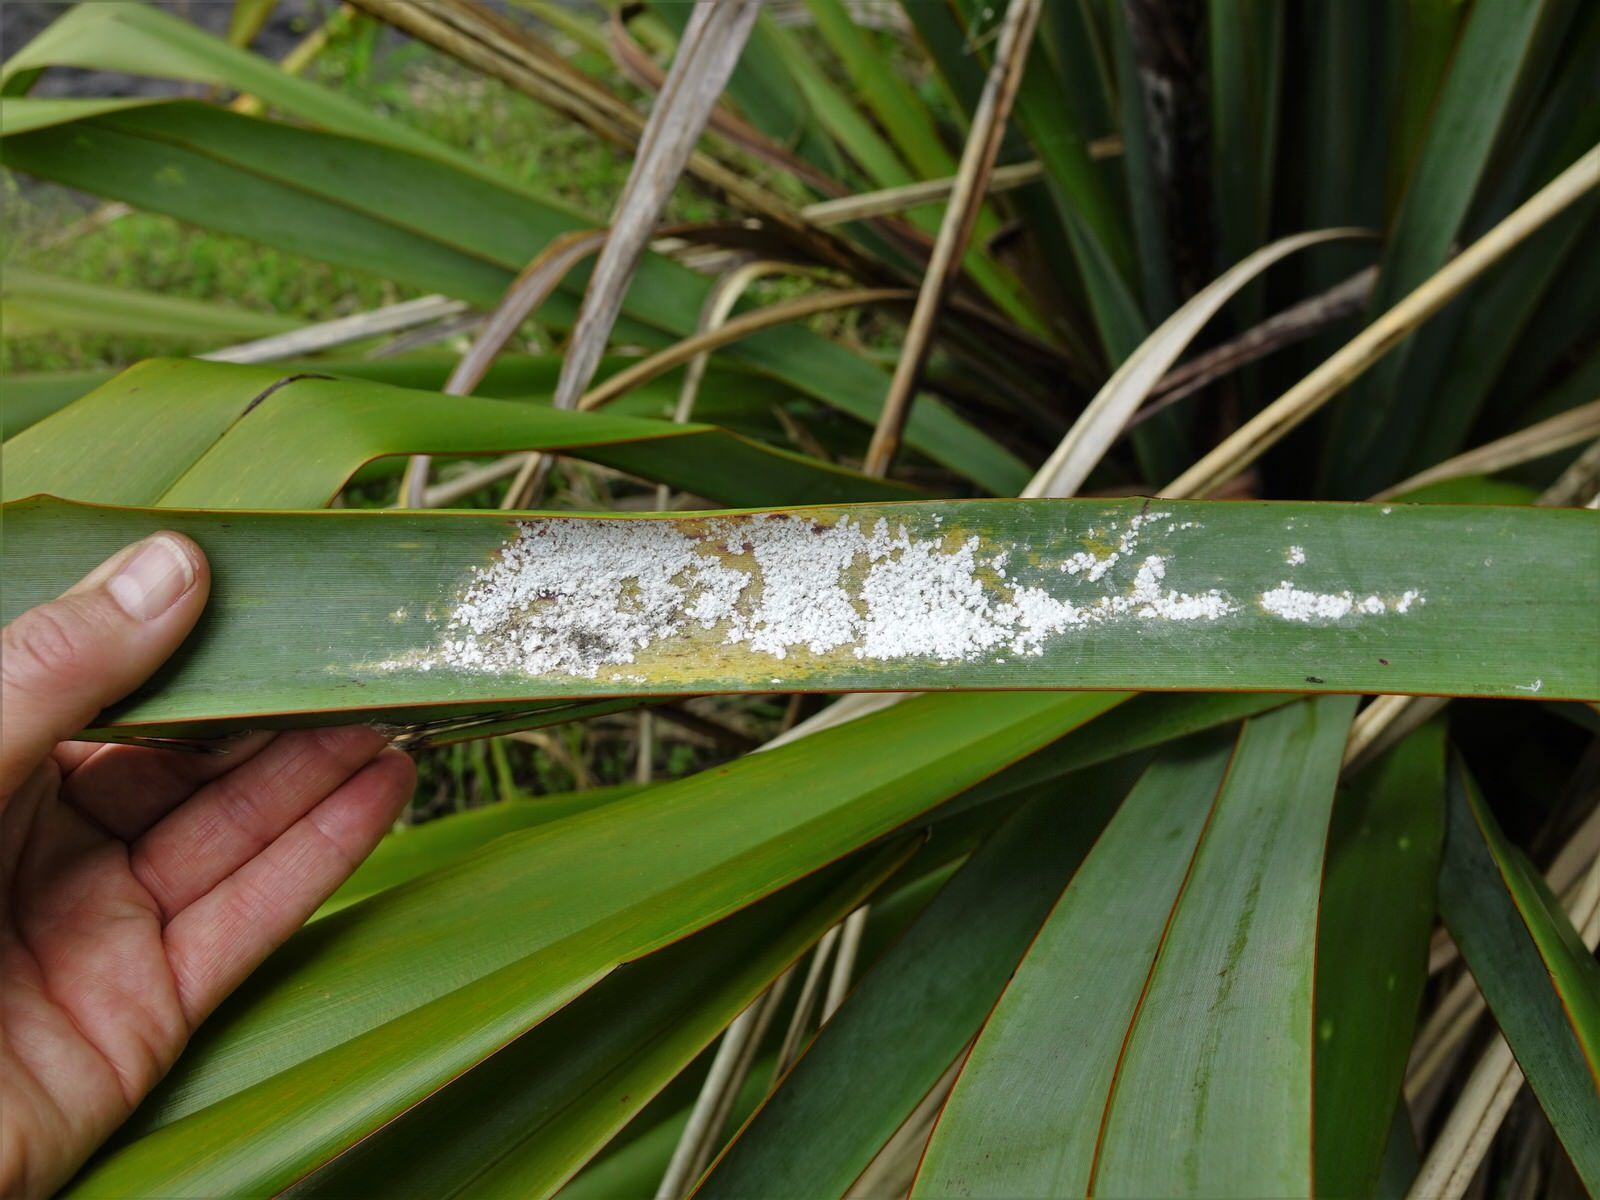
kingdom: Animalia
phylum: Arthropoda
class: Insecta
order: Hemiptera
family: Diaspididae
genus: Poliaspis
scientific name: Poliaspis floccosa
